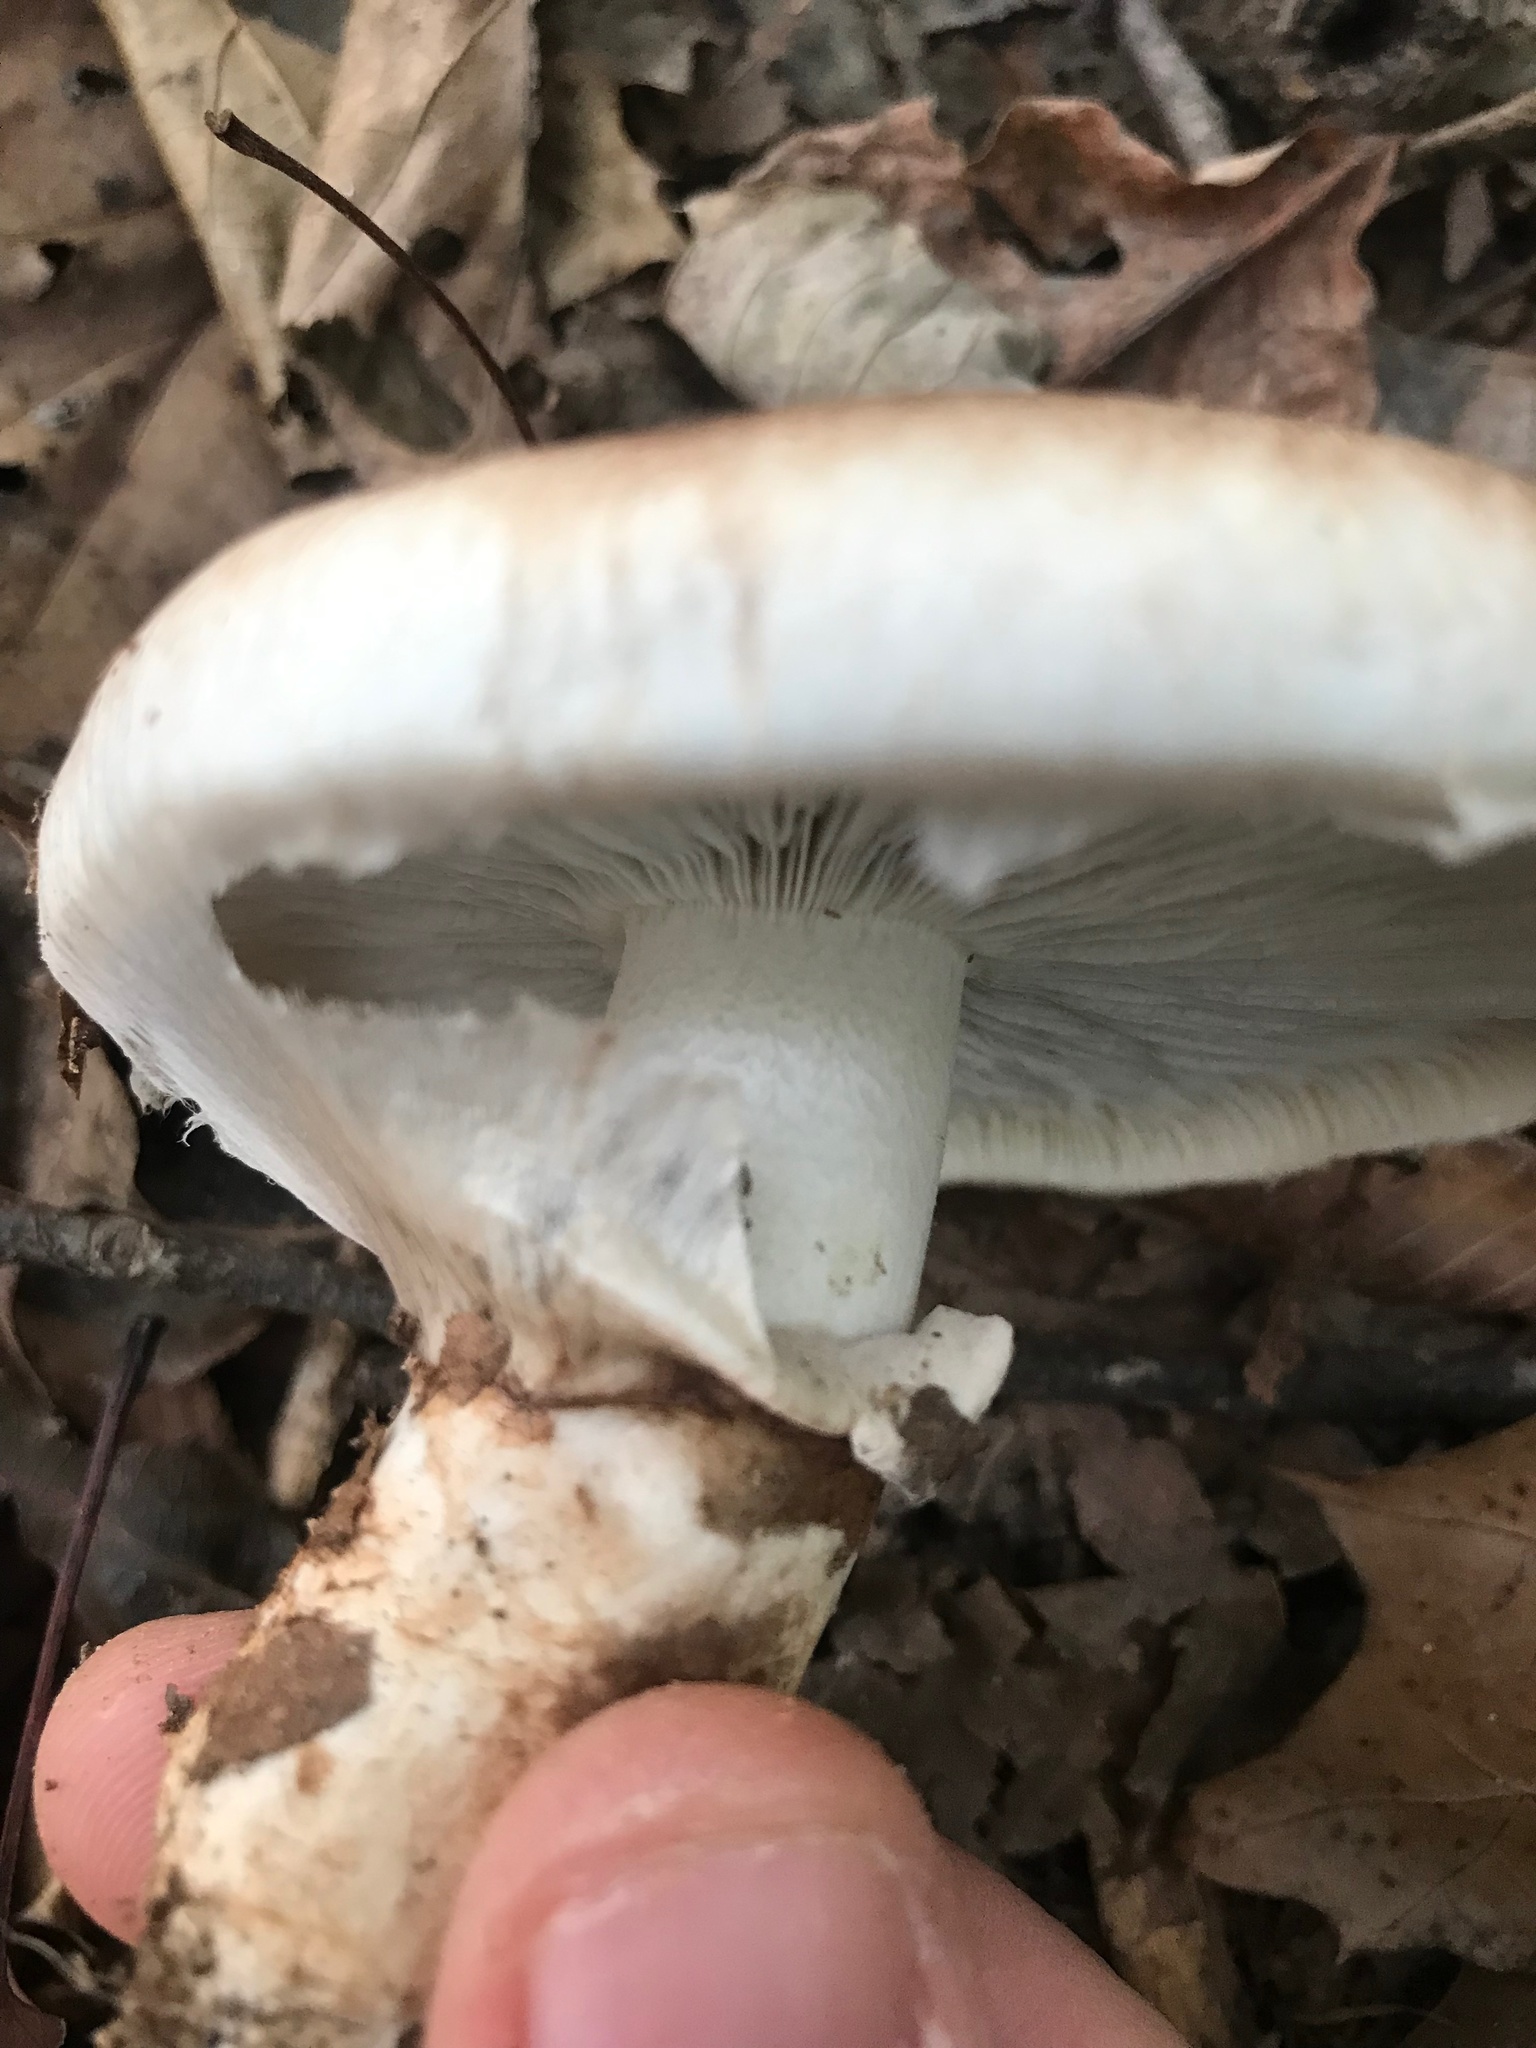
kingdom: Fungi
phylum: Basidiomycota
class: Agaricomycetes
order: Agaricales
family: Tricholomataceae
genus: Tricholoma
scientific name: Tricholoma caligatum
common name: True booted knight
